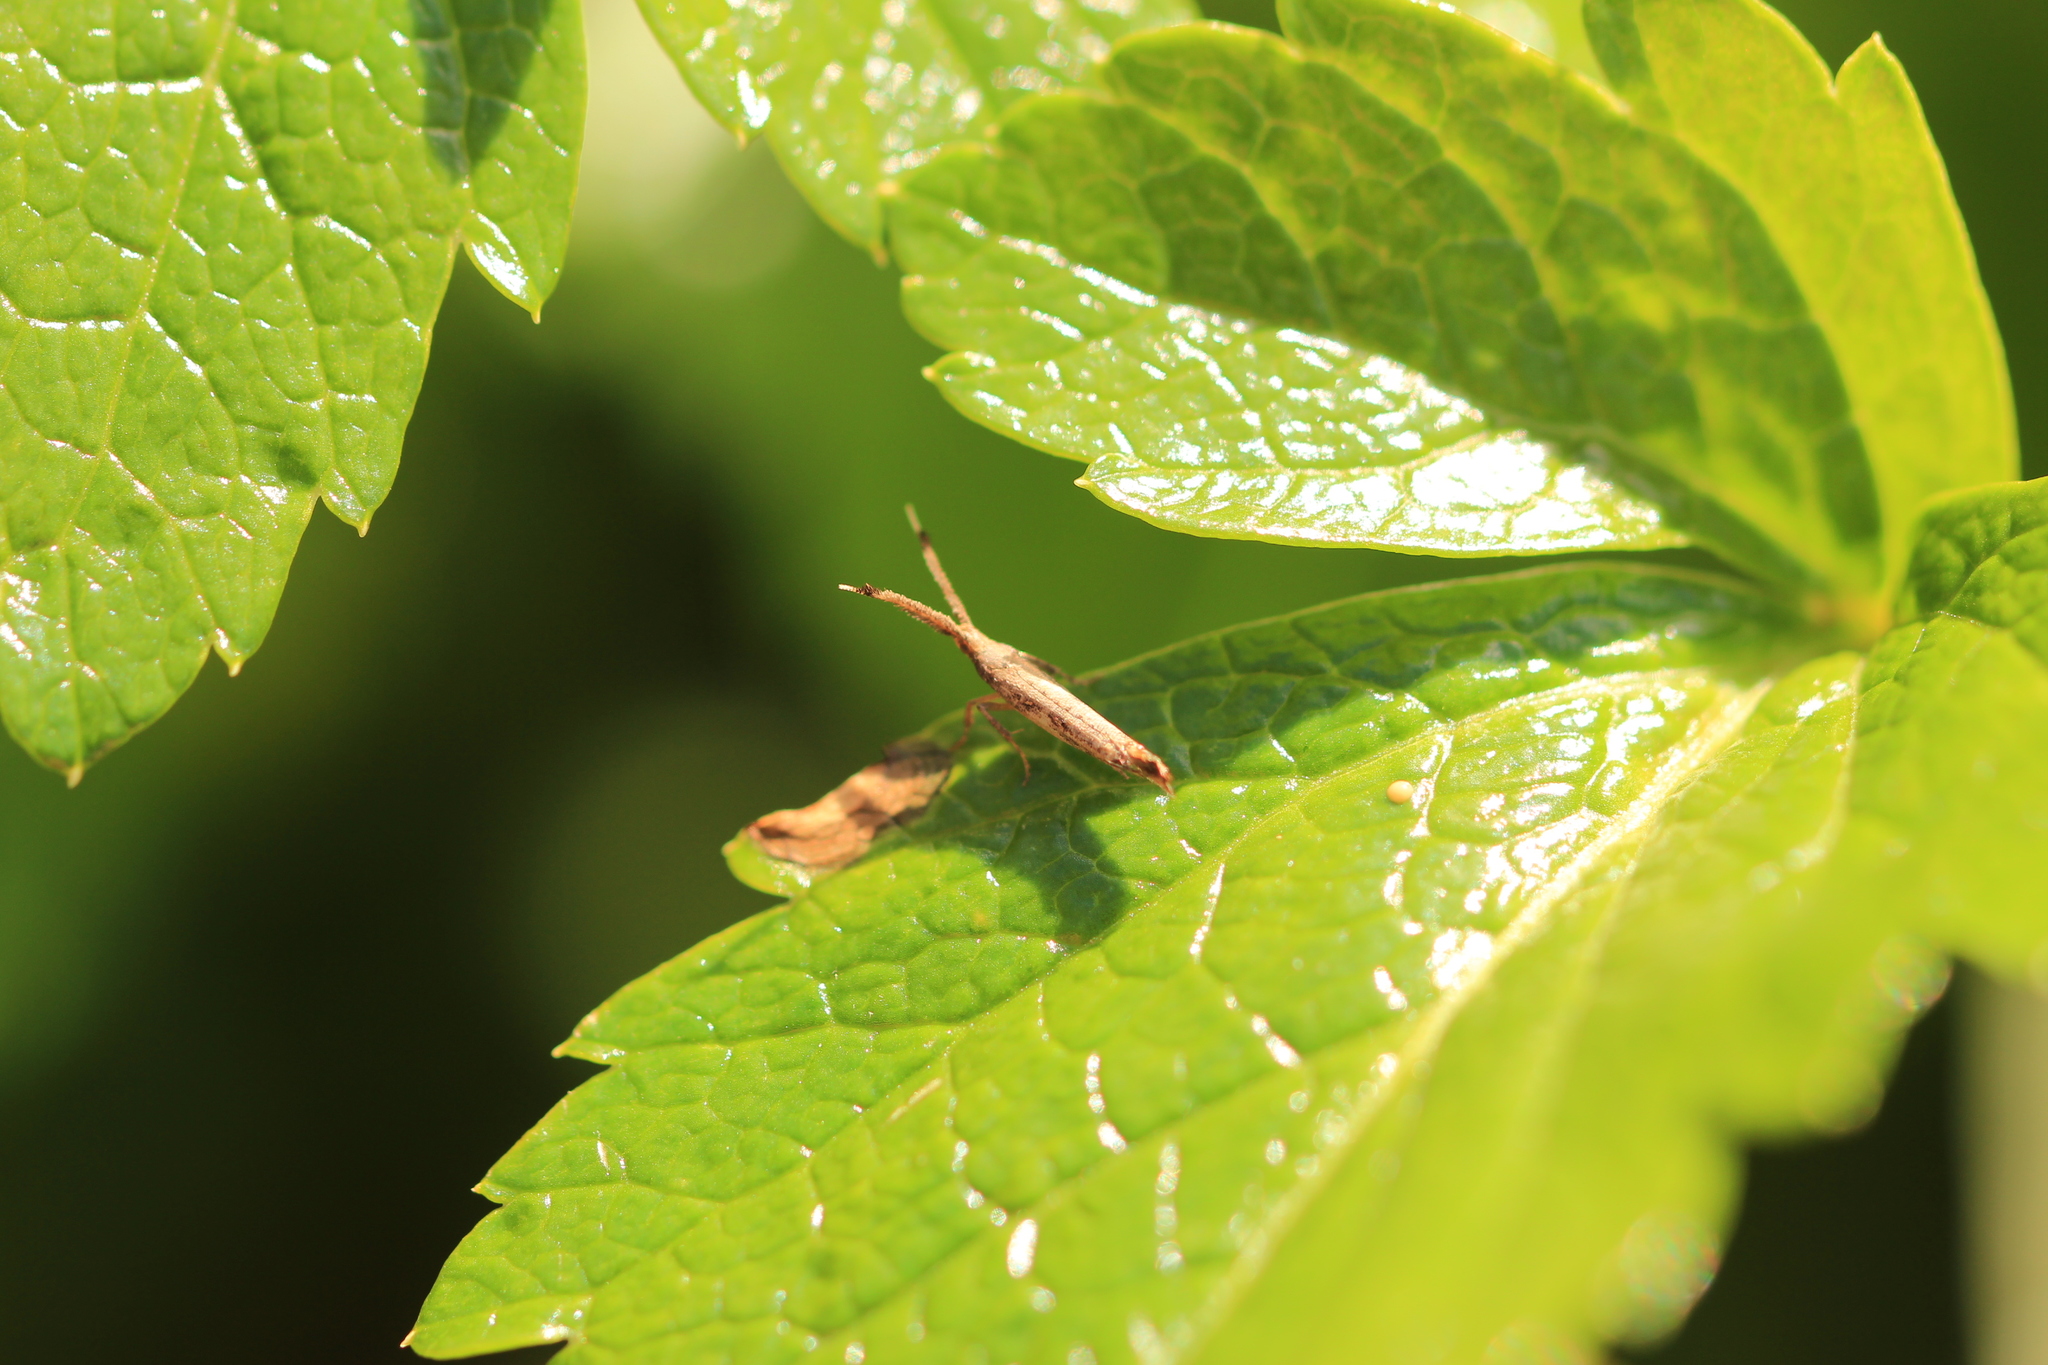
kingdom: Animalia
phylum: Arthropoda
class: Insecta
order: Lepidoptera
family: Plutellidae
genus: Protosynaema
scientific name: Protosynaema steropucha
